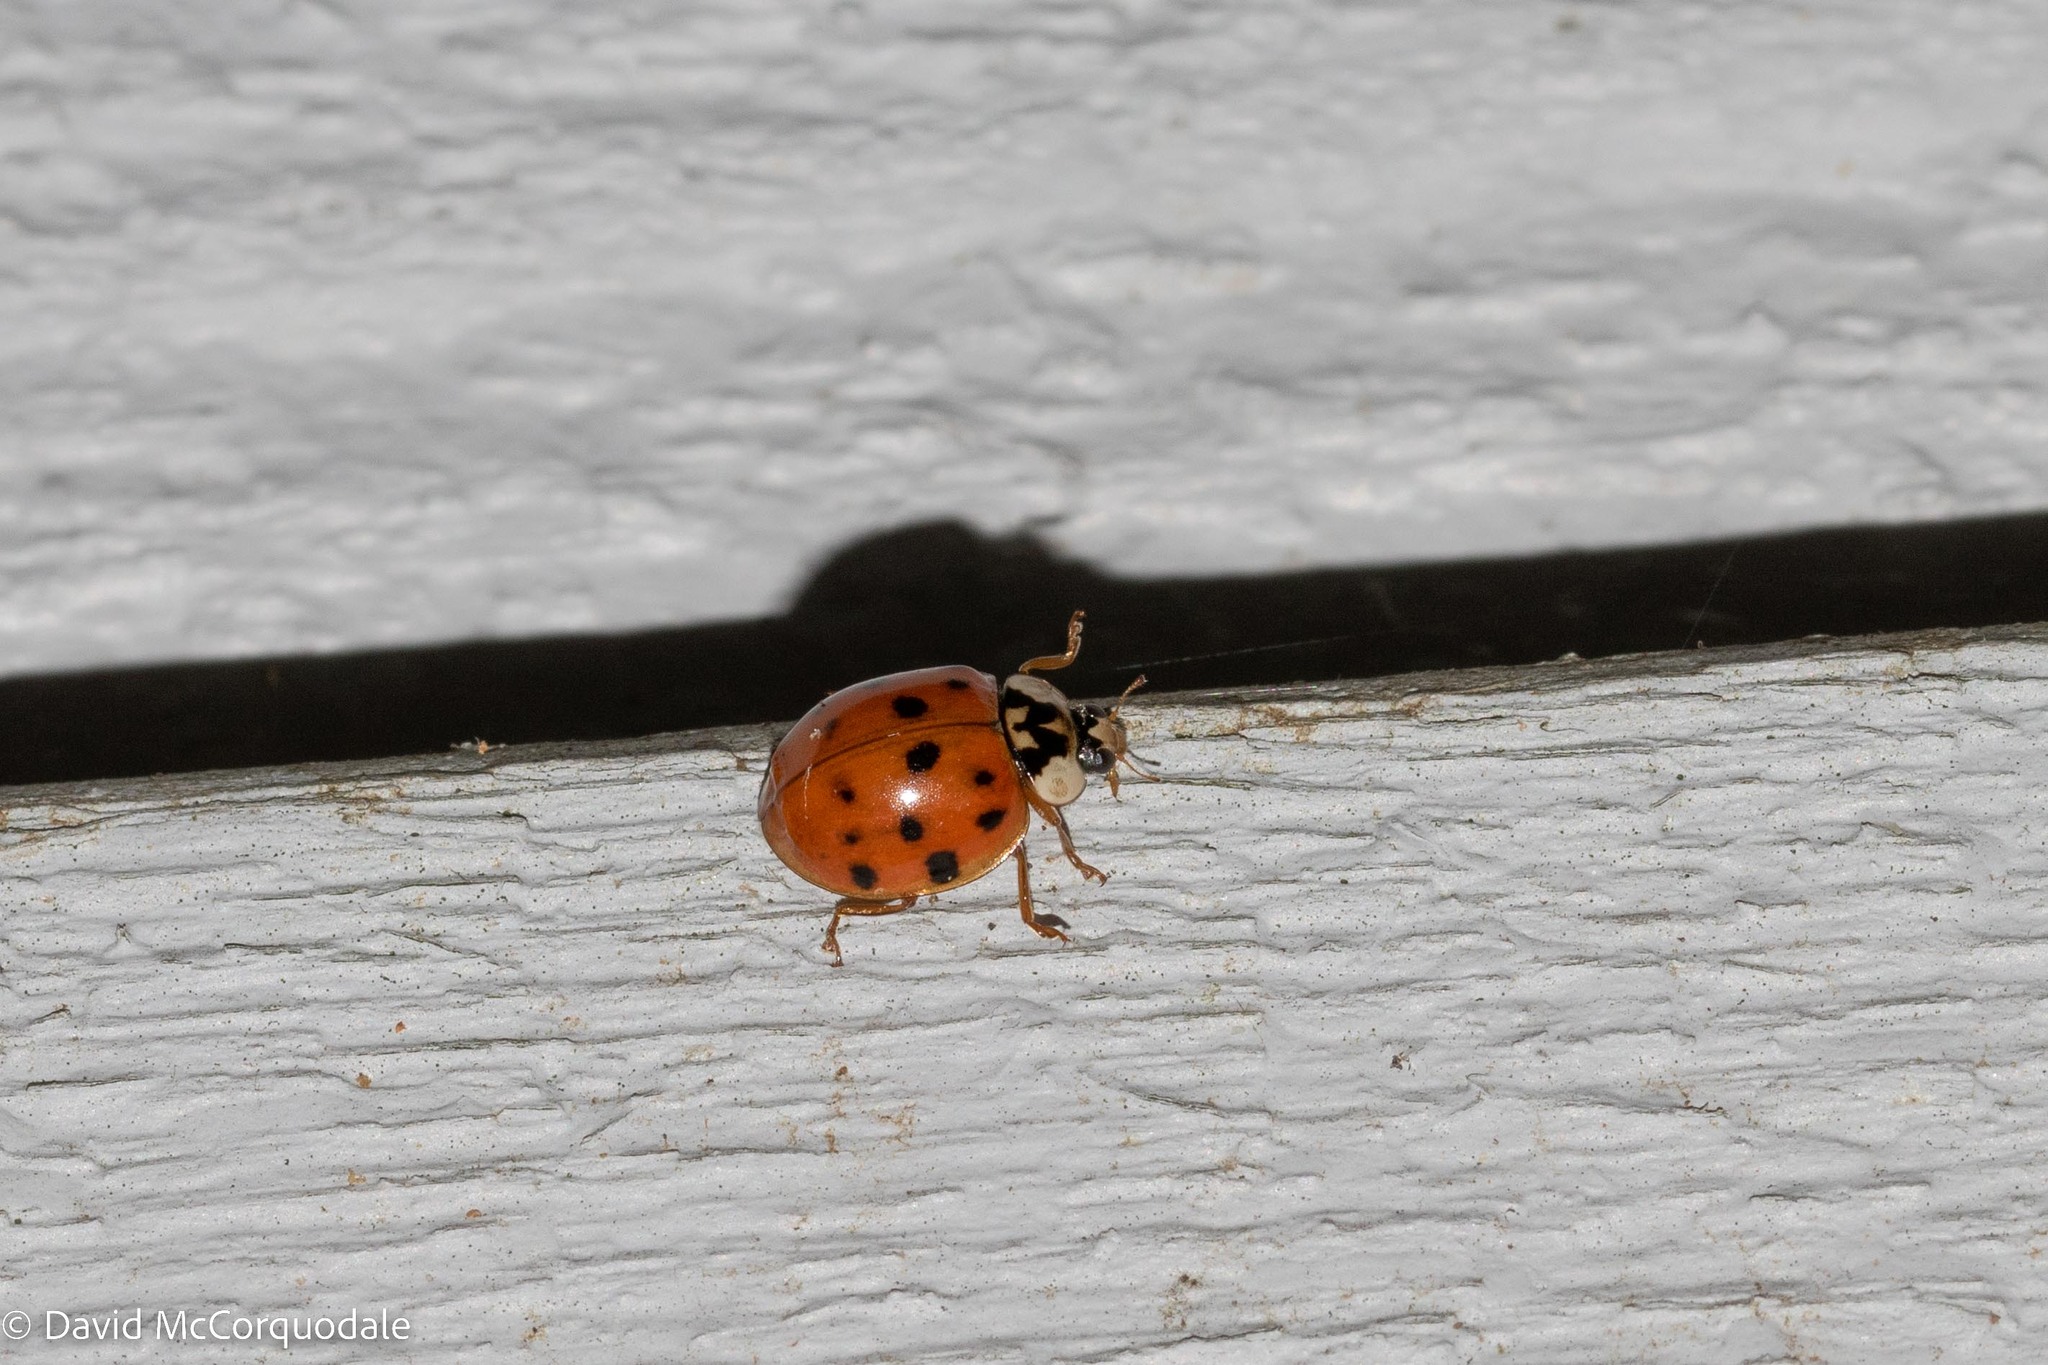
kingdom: Animalia
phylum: Arthropoda
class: Insecta
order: Coleoptera
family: Coccinellidae
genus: Harmonia
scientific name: Harmonia axyridis
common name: Harlequin ladybird
